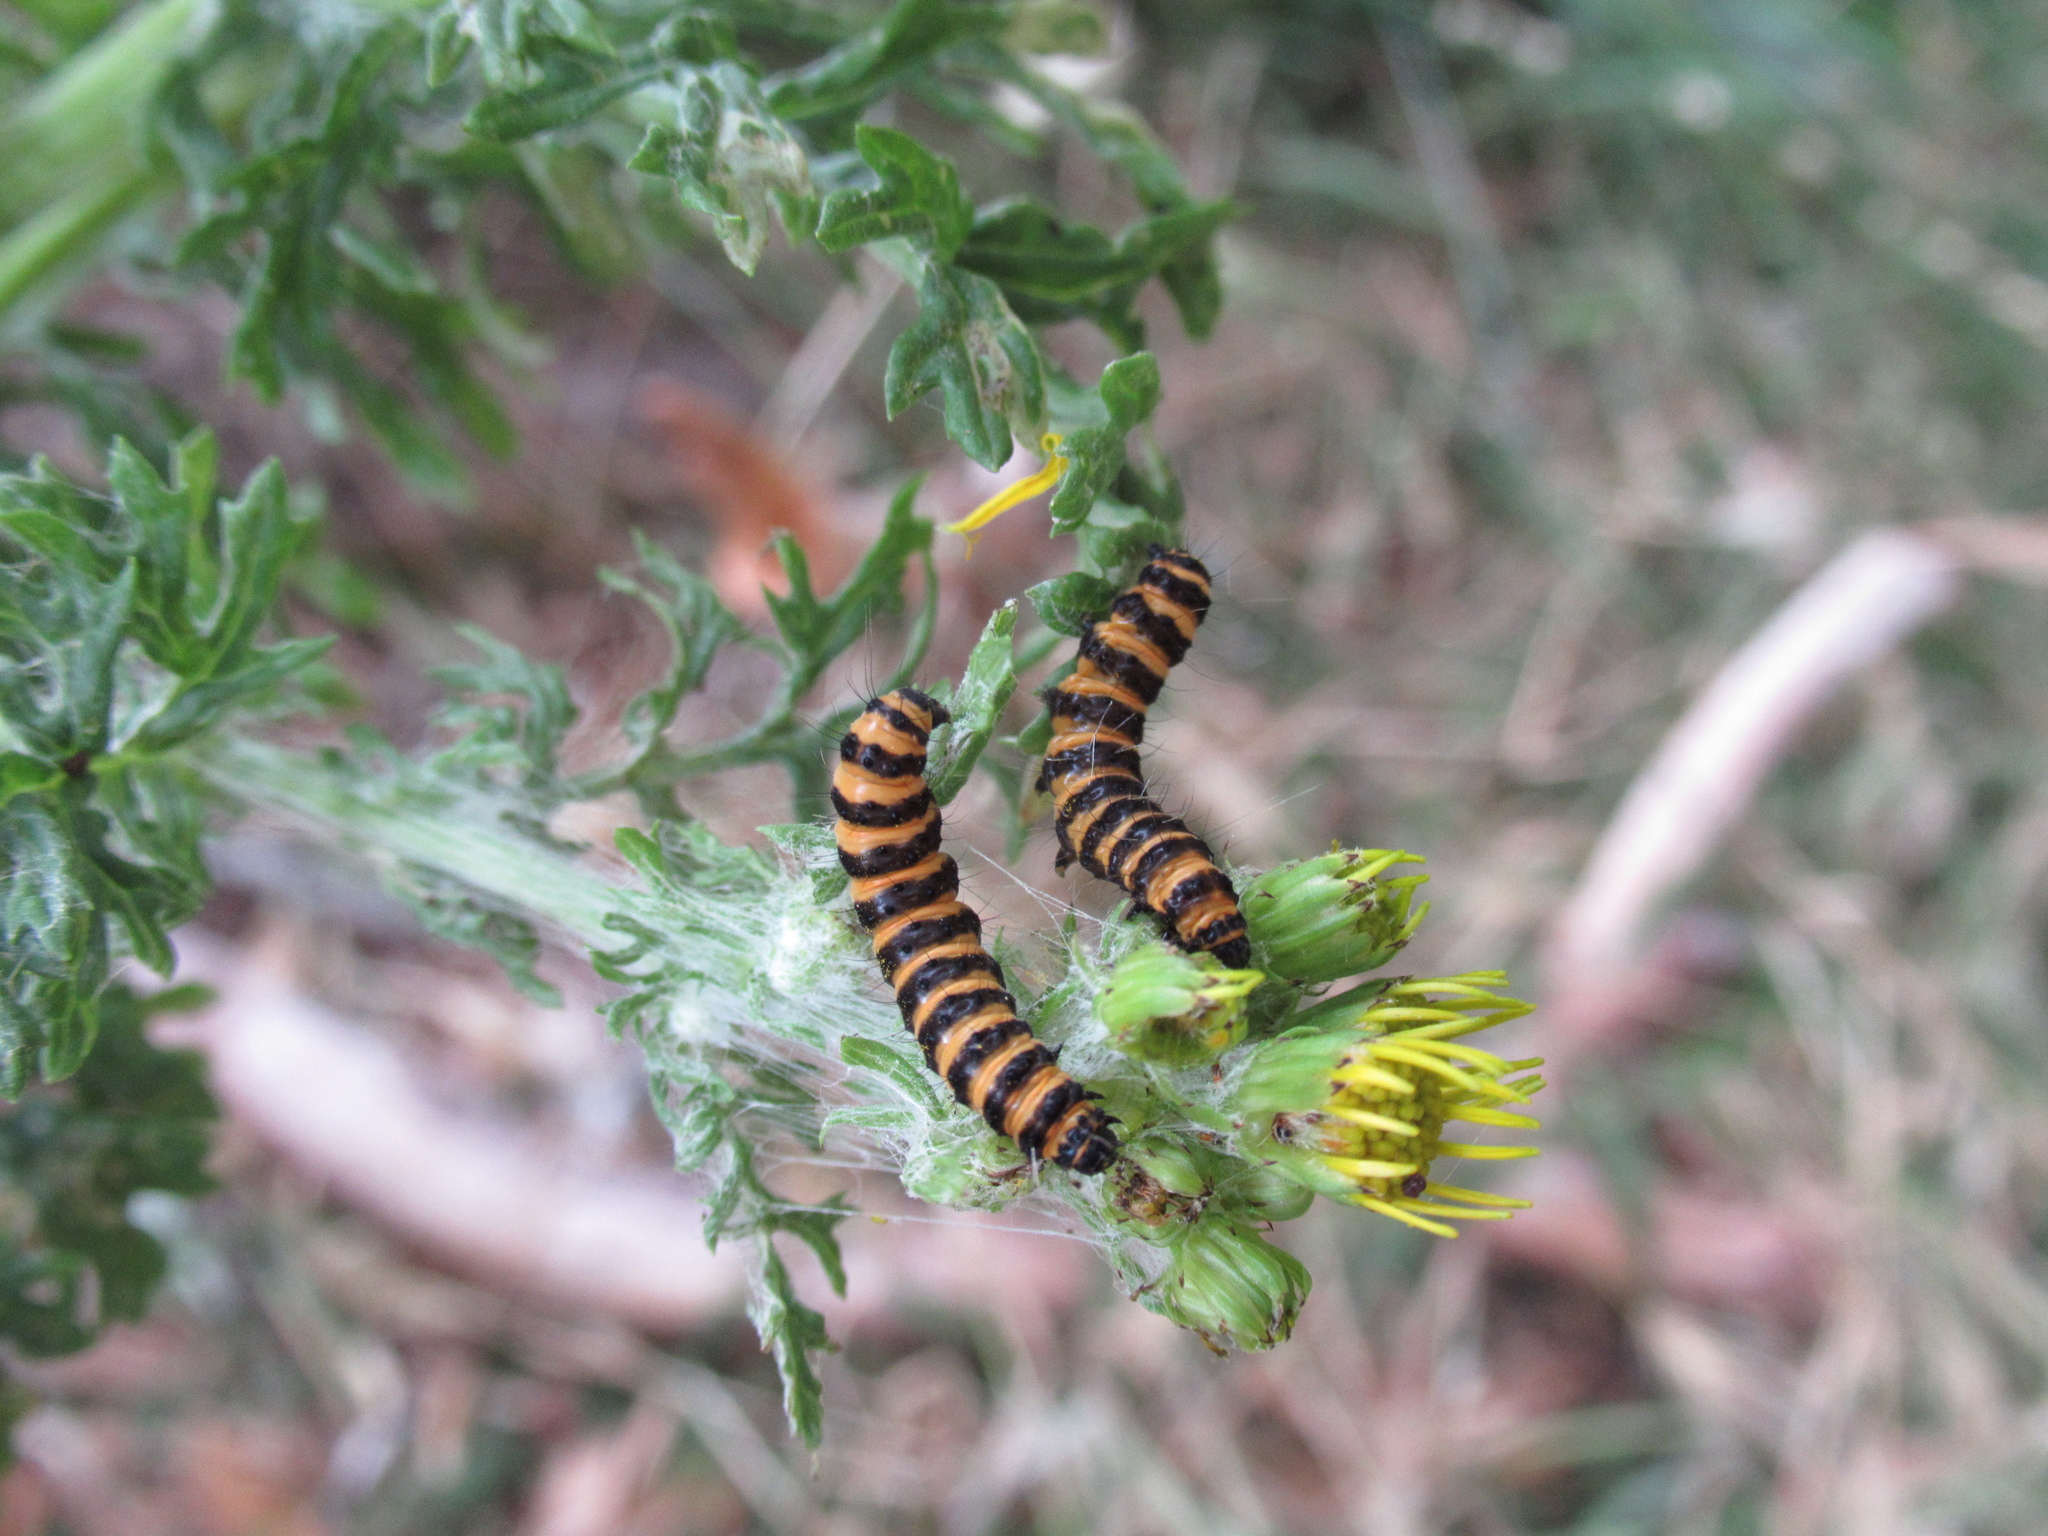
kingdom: Plantae
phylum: Tracheophyta
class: Magnoliopsida
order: Asterales
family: Asteraceae
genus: Jacobaea
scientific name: Jacobaea vulgaris
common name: Stinking willie
